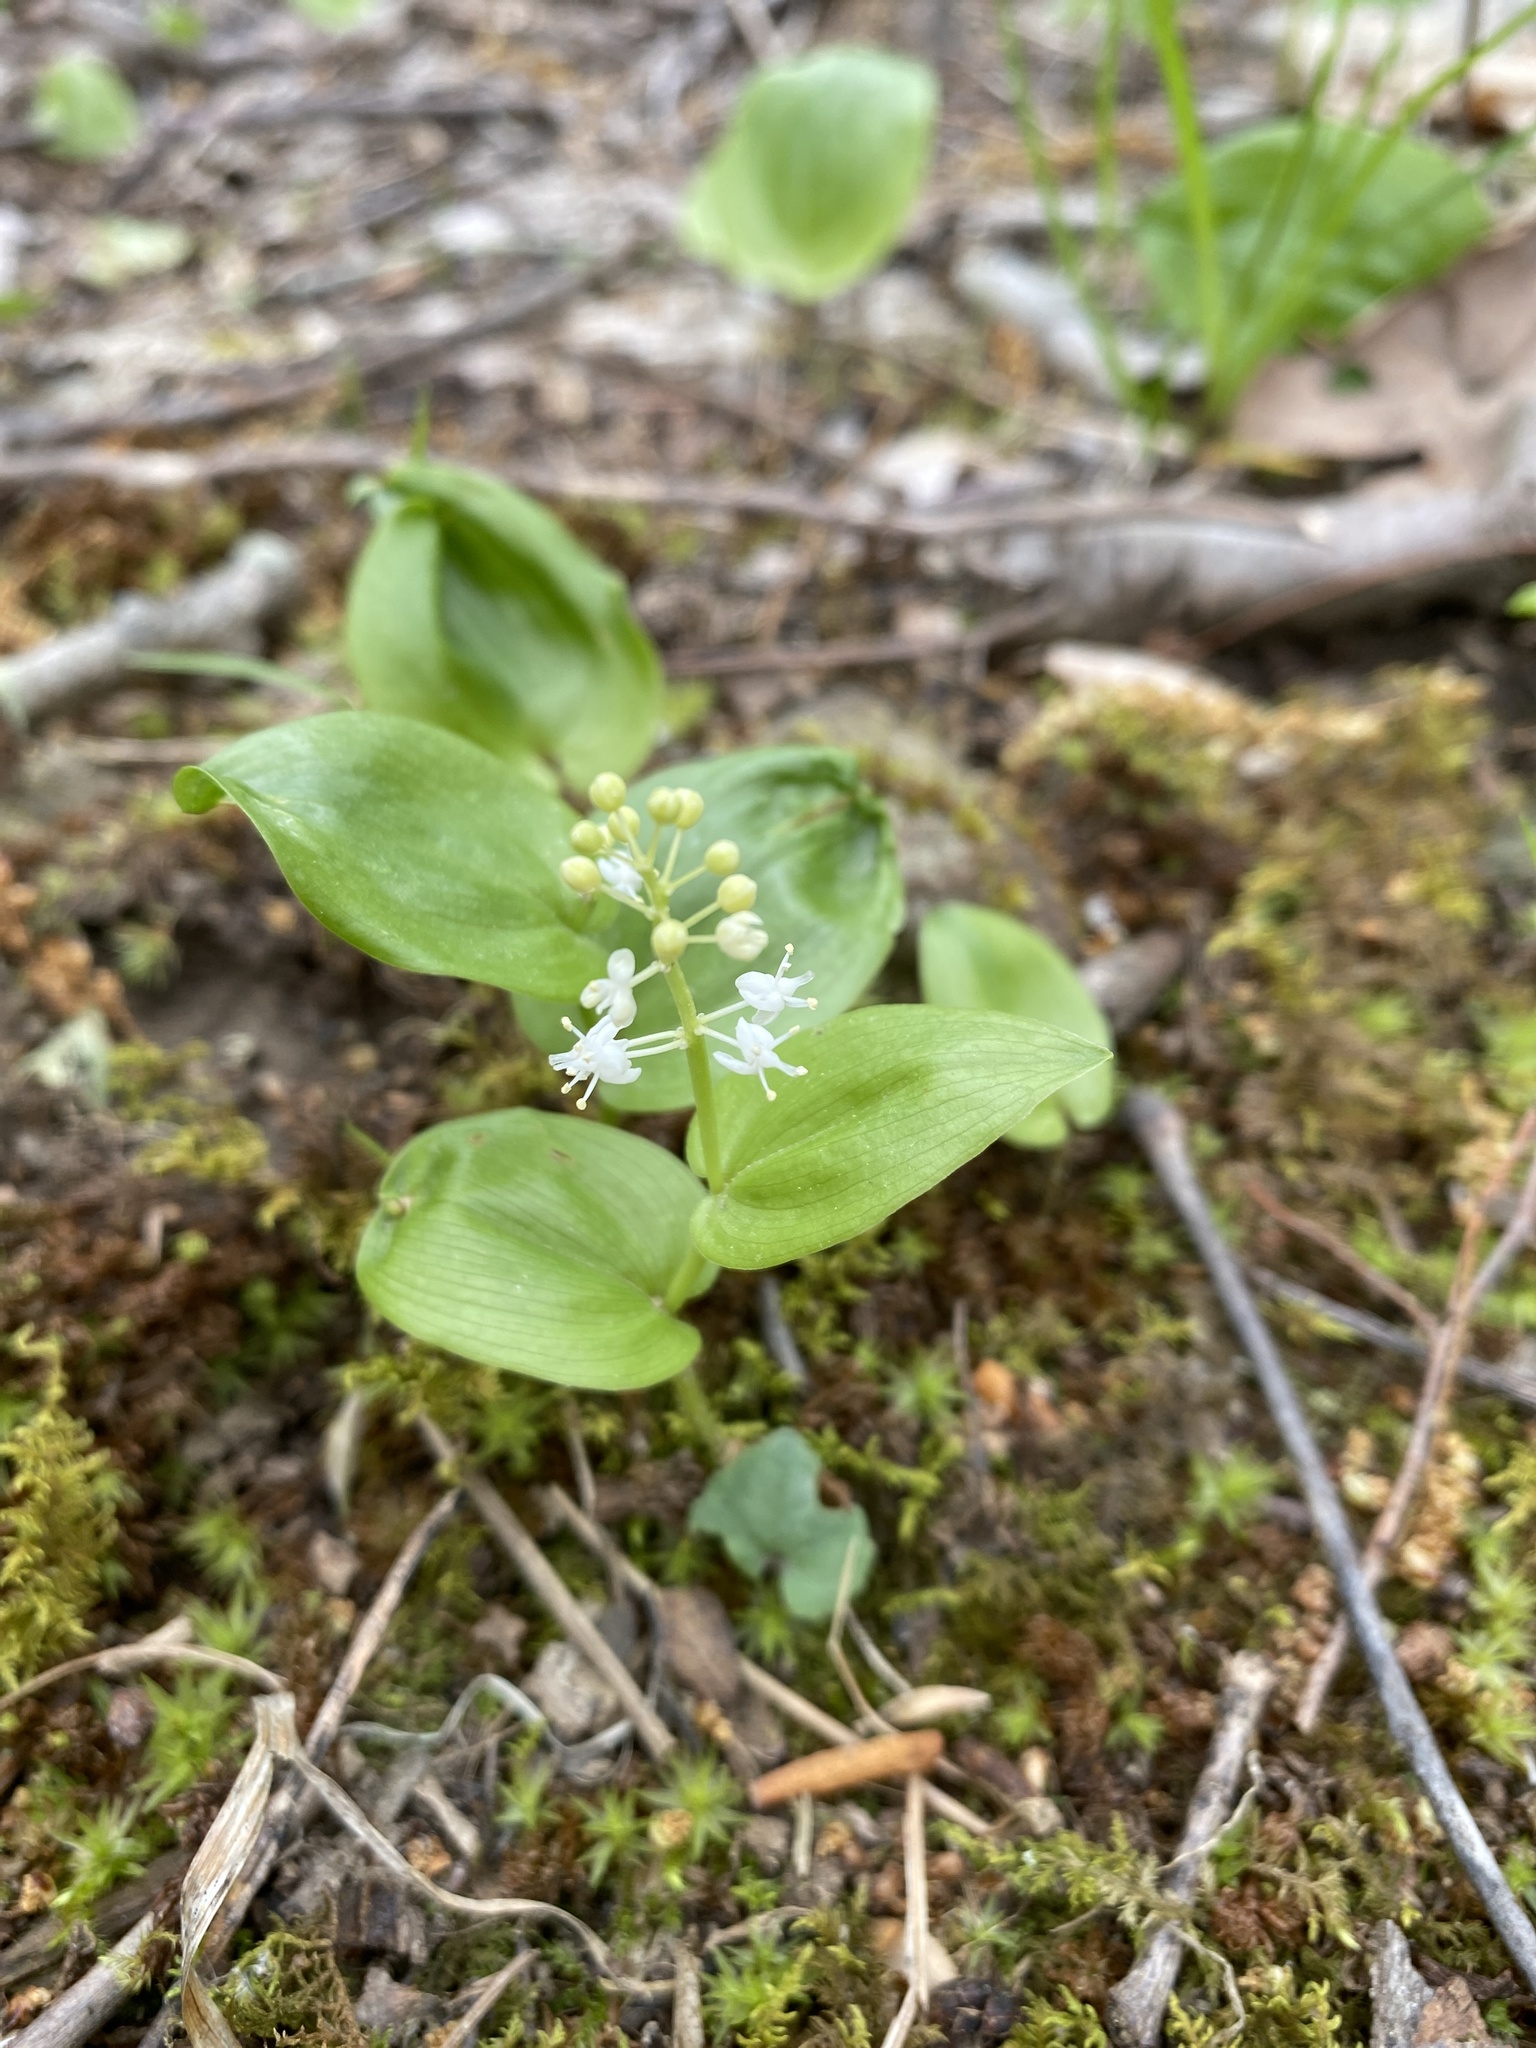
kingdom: Plantae
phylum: Tracheophyta
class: Liliopsida
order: Asparagales
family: Asparagaceae
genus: Maianthemum
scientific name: Maianthemum canadense
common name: False lily-of-the-valley
